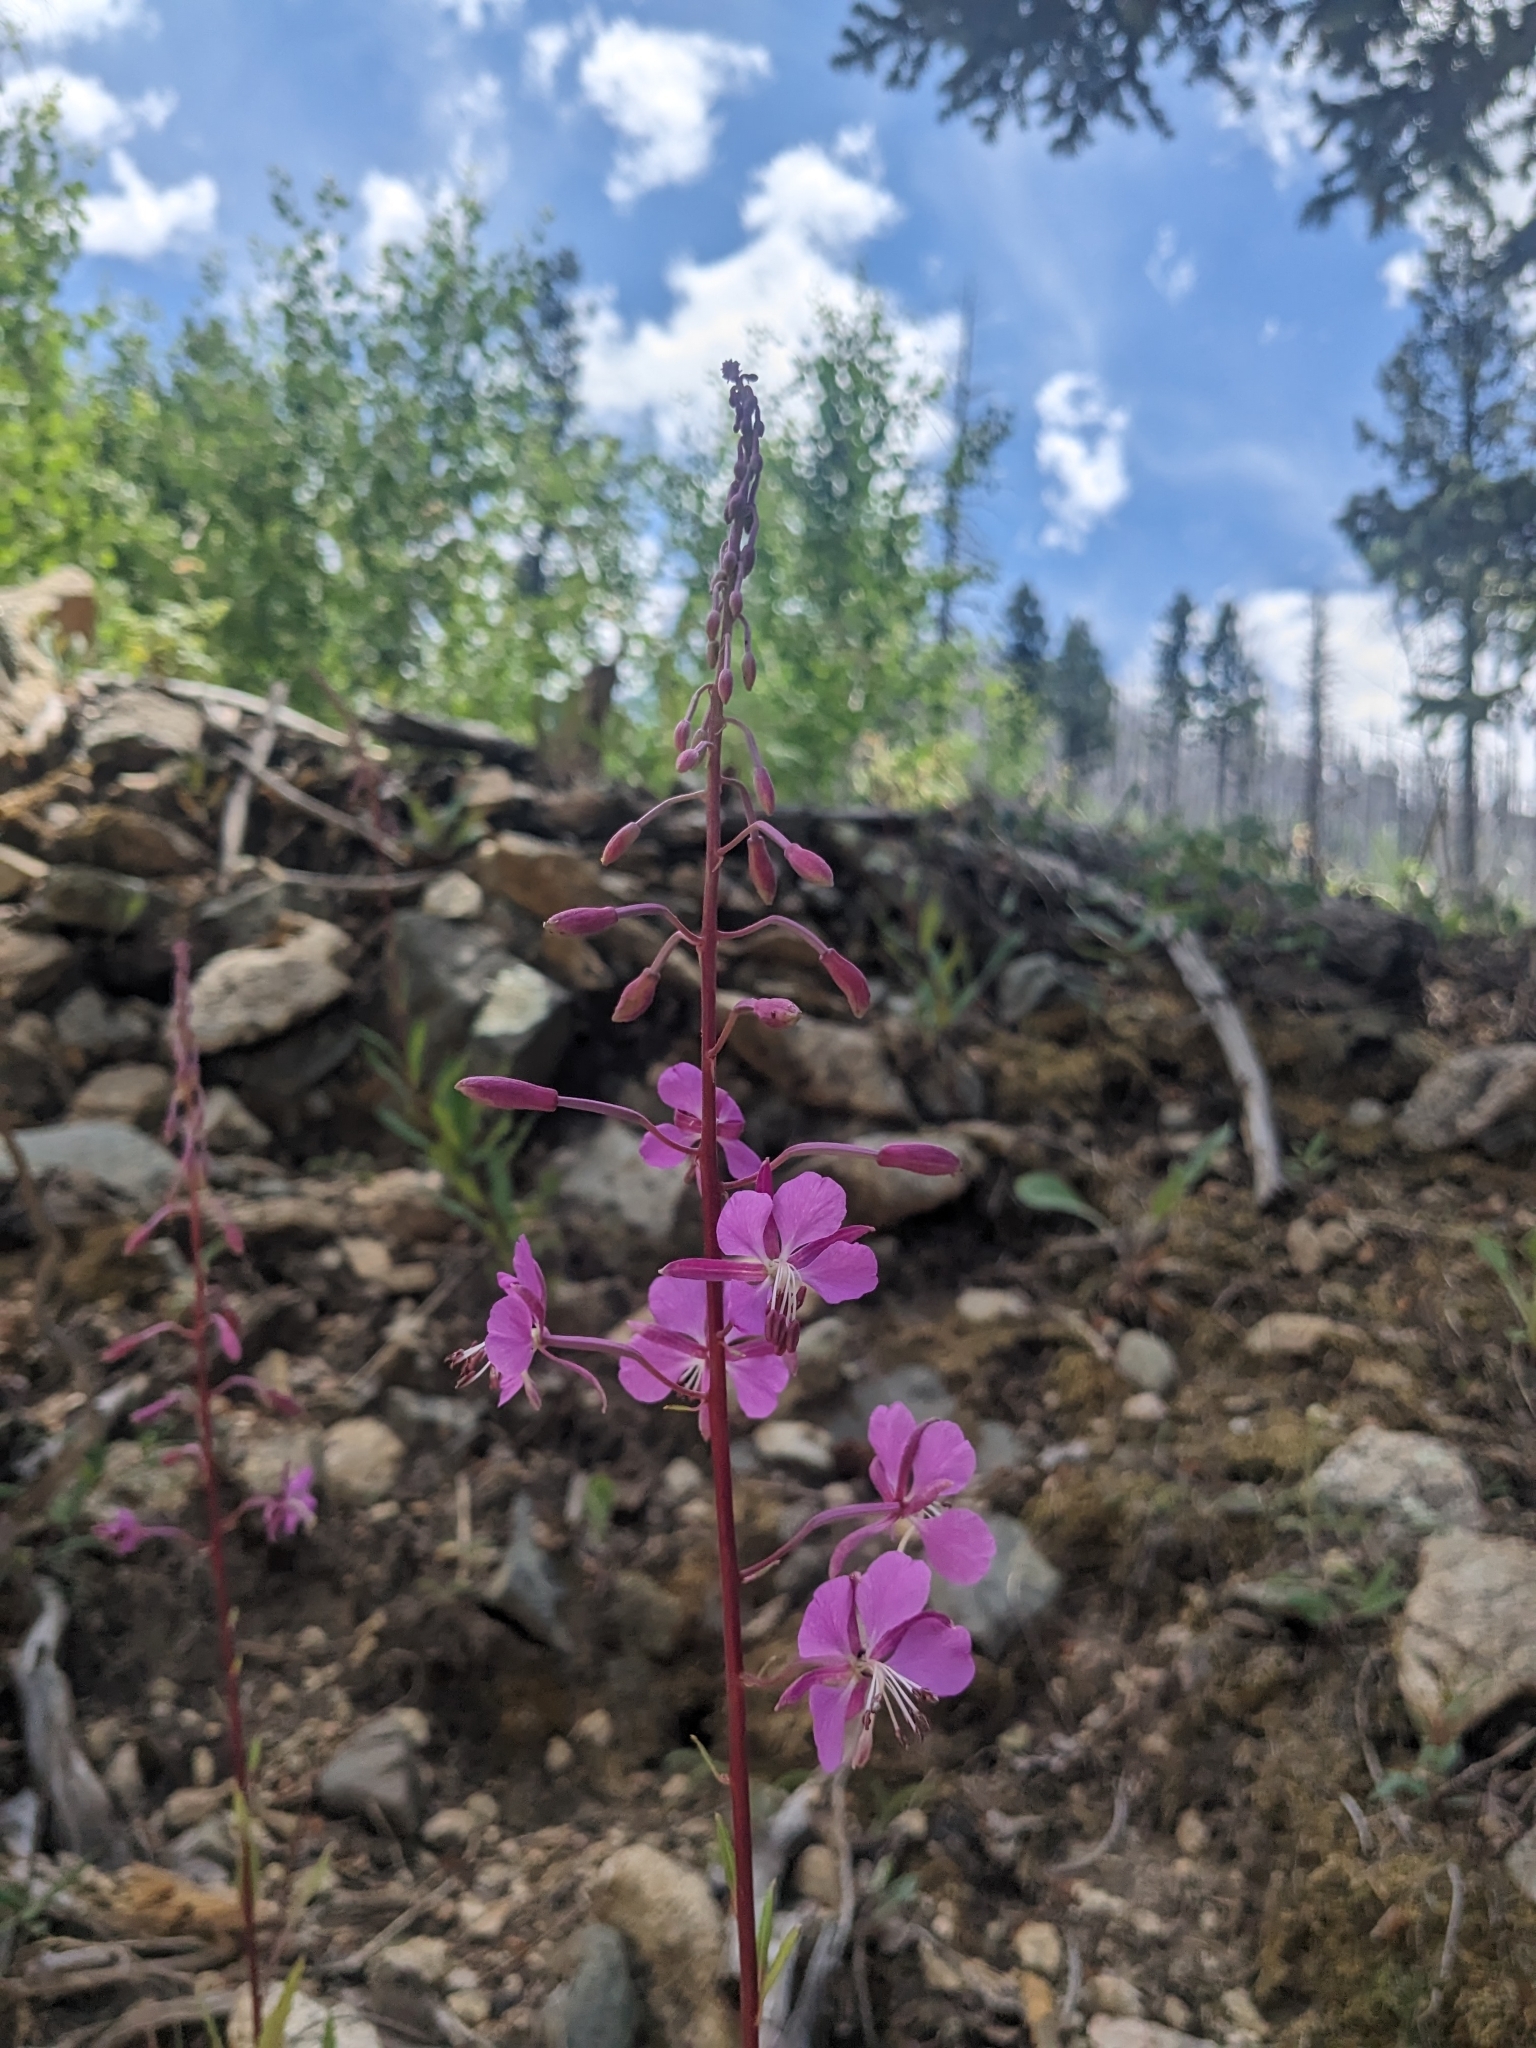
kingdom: Plantae
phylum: Tracheophyta
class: Magnoliopsida
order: Myrtales
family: Onagraceae
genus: Chamaenerion
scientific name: Chamaenerion angustifolium
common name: Fireweed
